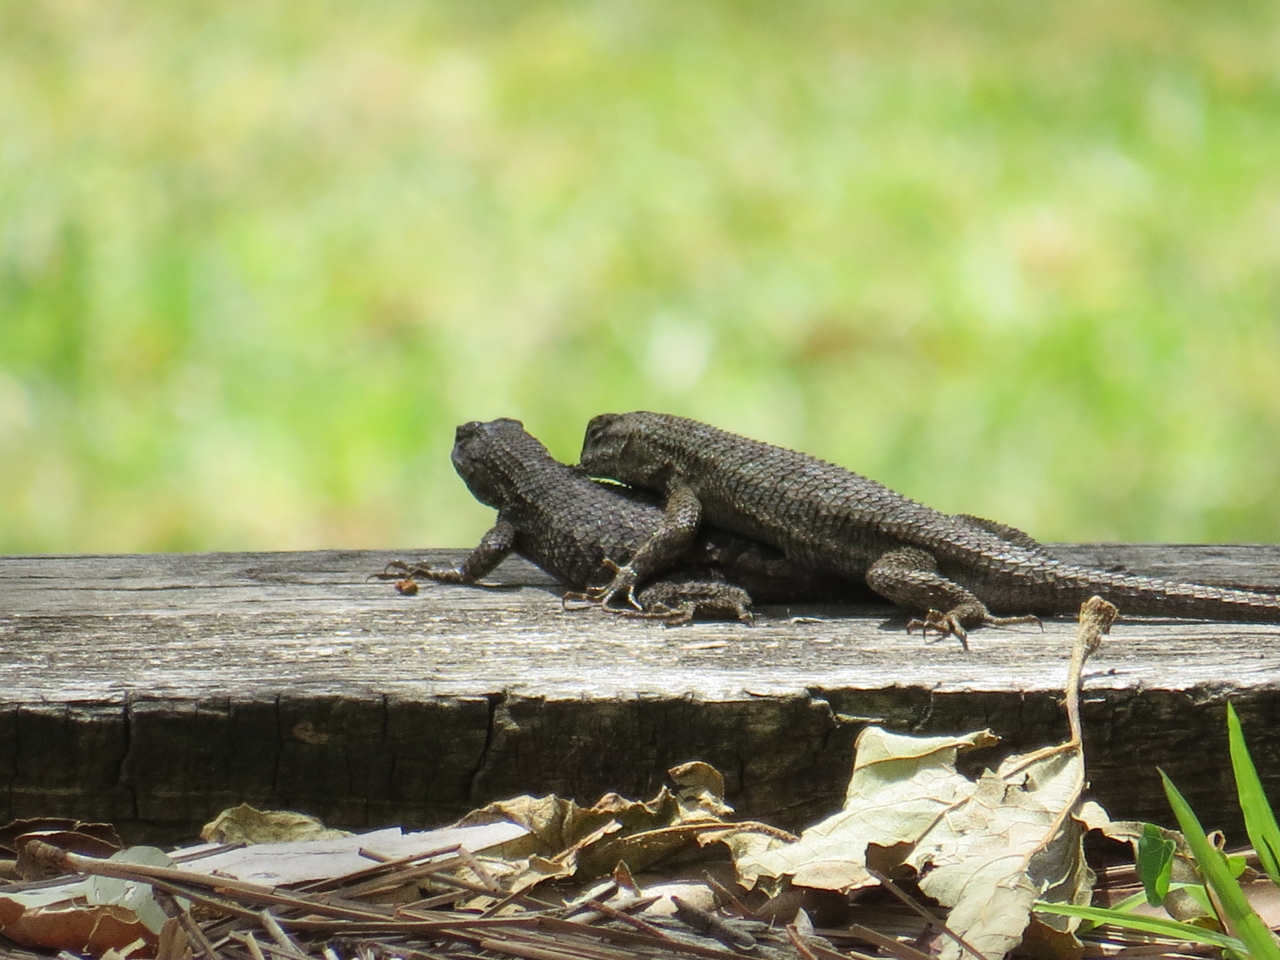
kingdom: Animalia
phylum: Chordata
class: Squamata
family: Phrynosomatidae
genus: Sceloporus
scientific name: Sceloporus occidentalis
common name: Western fence lizard
